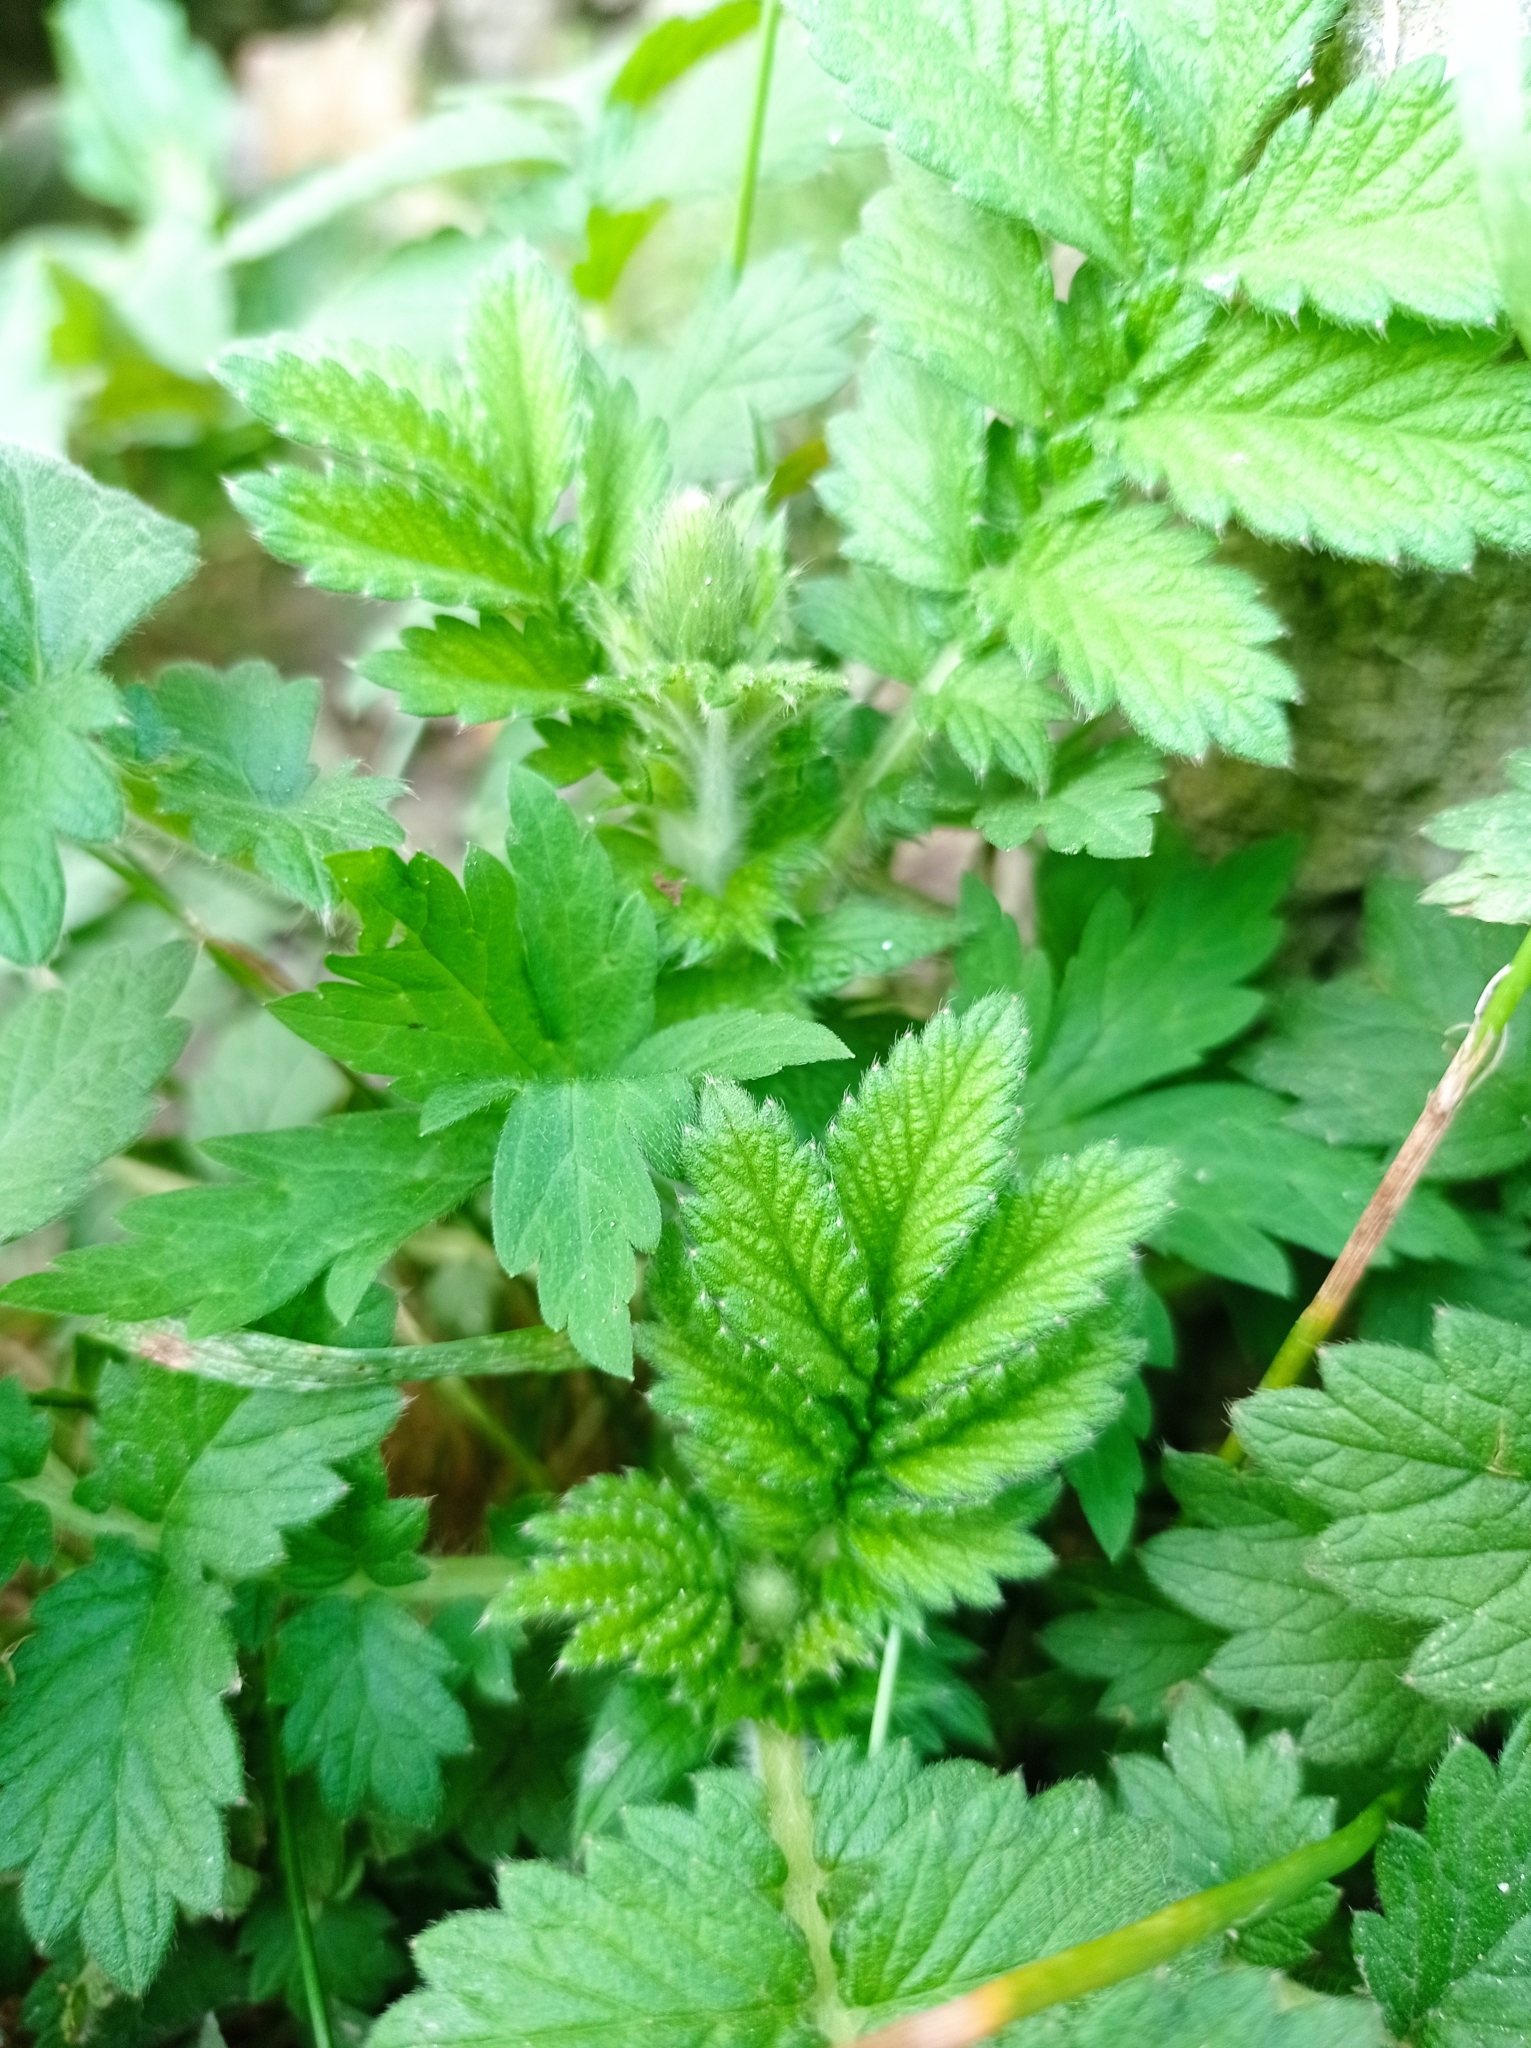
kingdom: Plantae
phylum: Tracheophyta
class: Magnoliopsida
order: Rosales
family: Rosaceae
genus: Agrimonia
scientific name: Agrimonia eupatoria
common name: Agrimony
